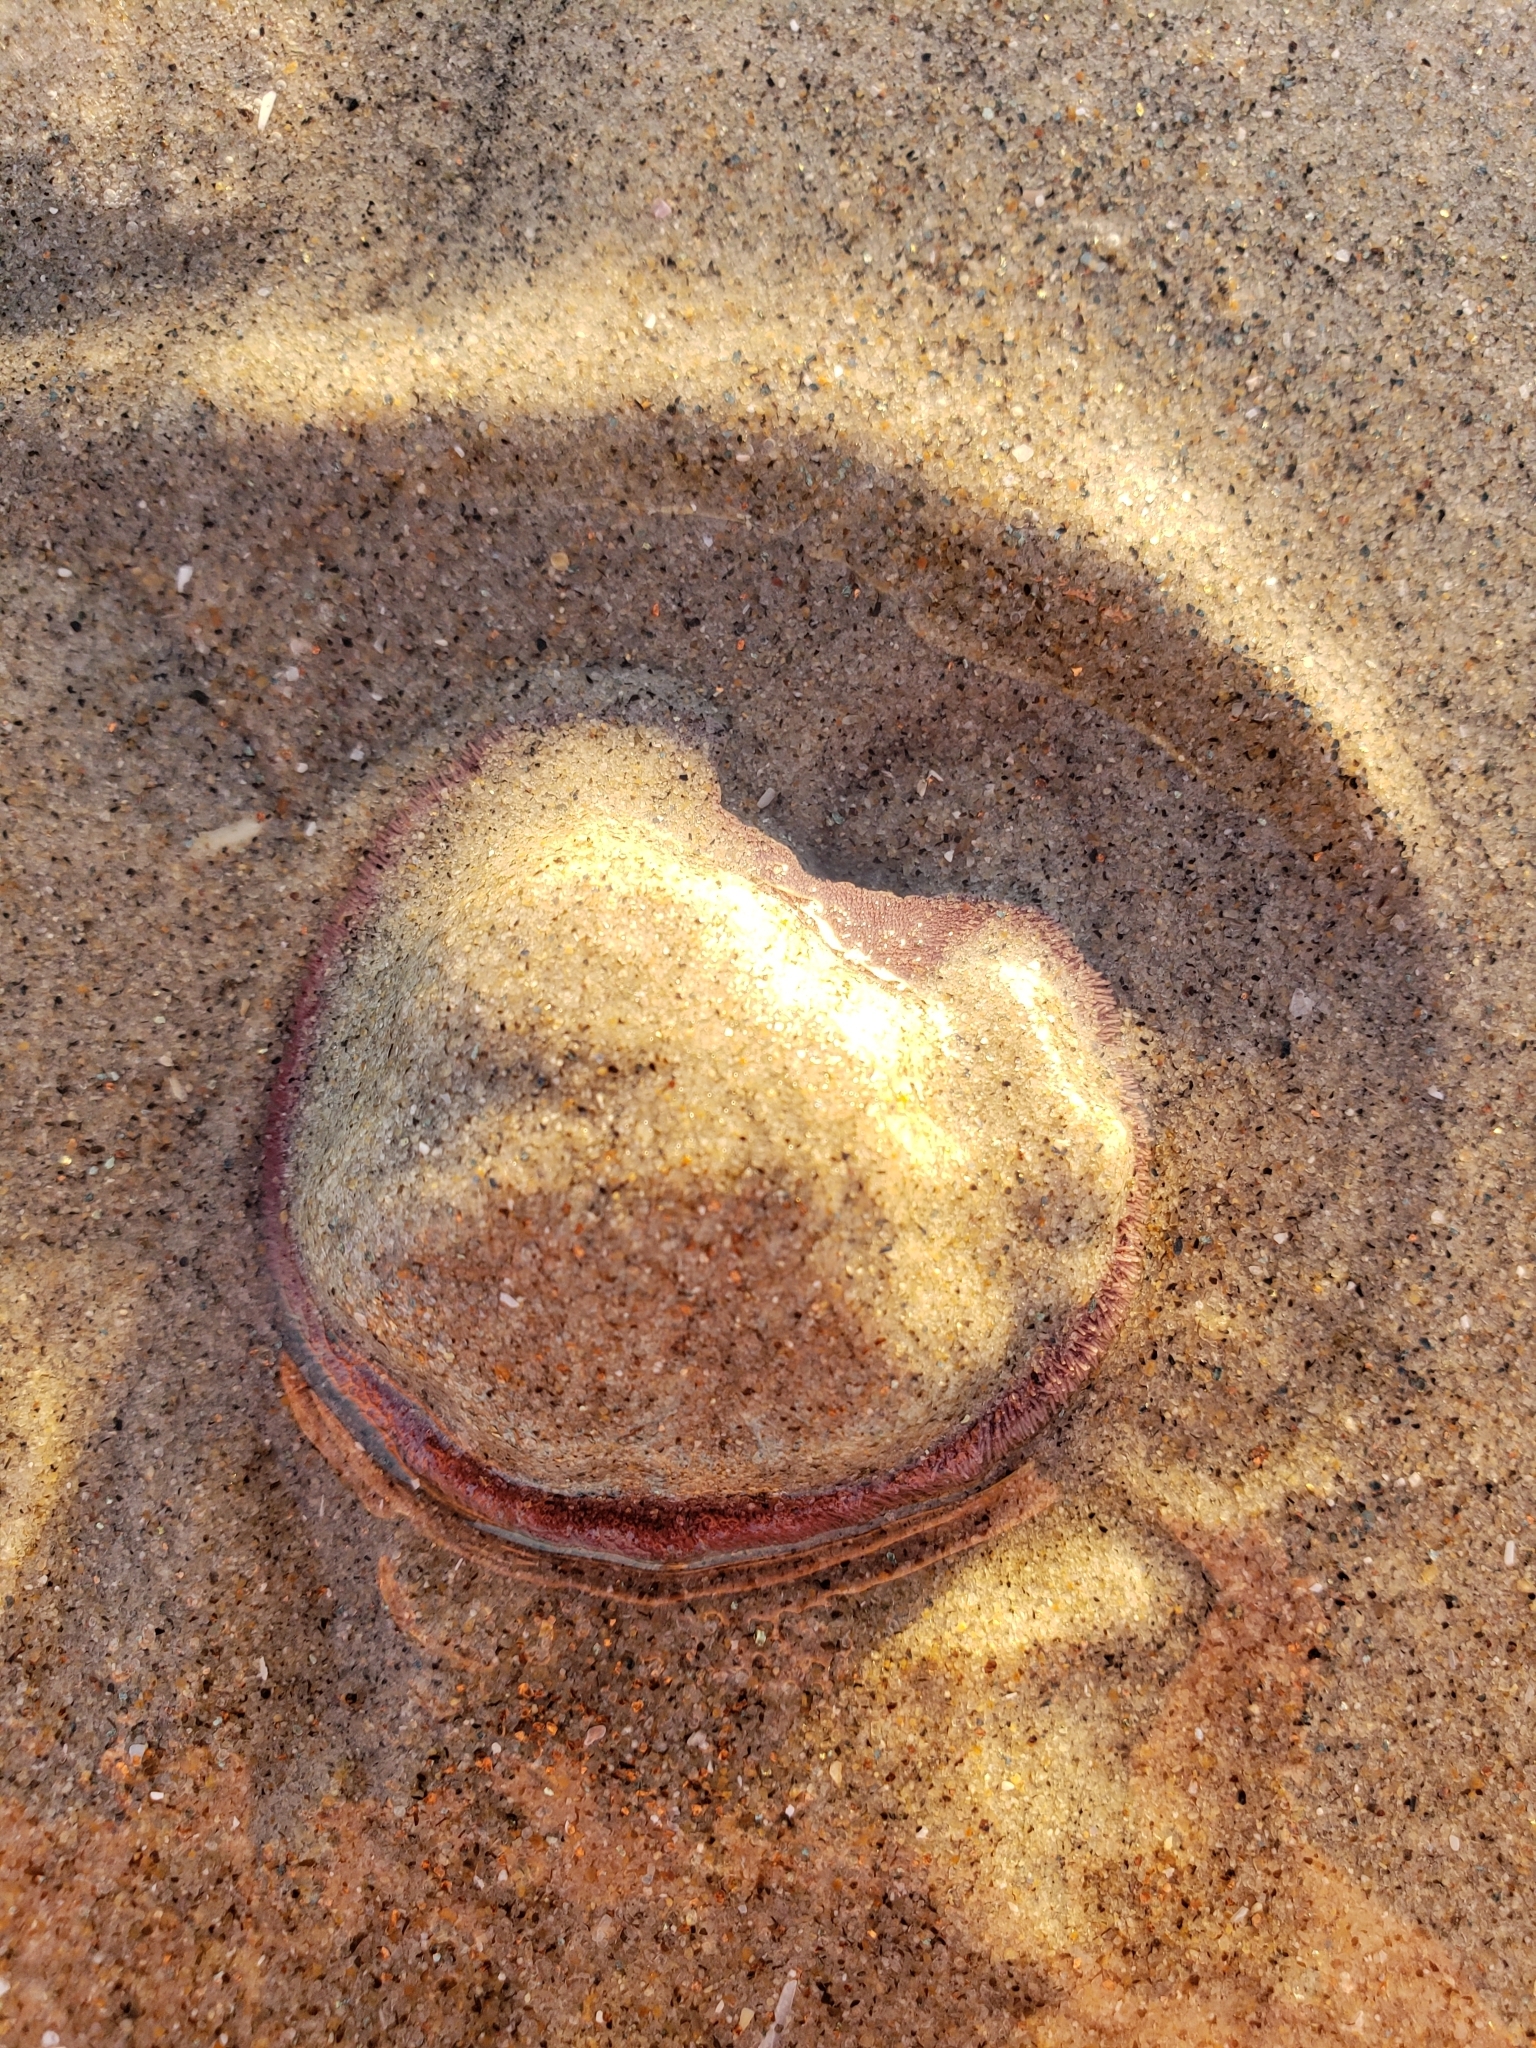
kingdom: Animalia
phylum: Echinodermata
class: Echinoidea
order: Echinolampadacea
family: Dendrasteridae
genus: Dendraster
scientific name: Dendraster excentricus
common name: Eccentric sand dollar sea urchin
